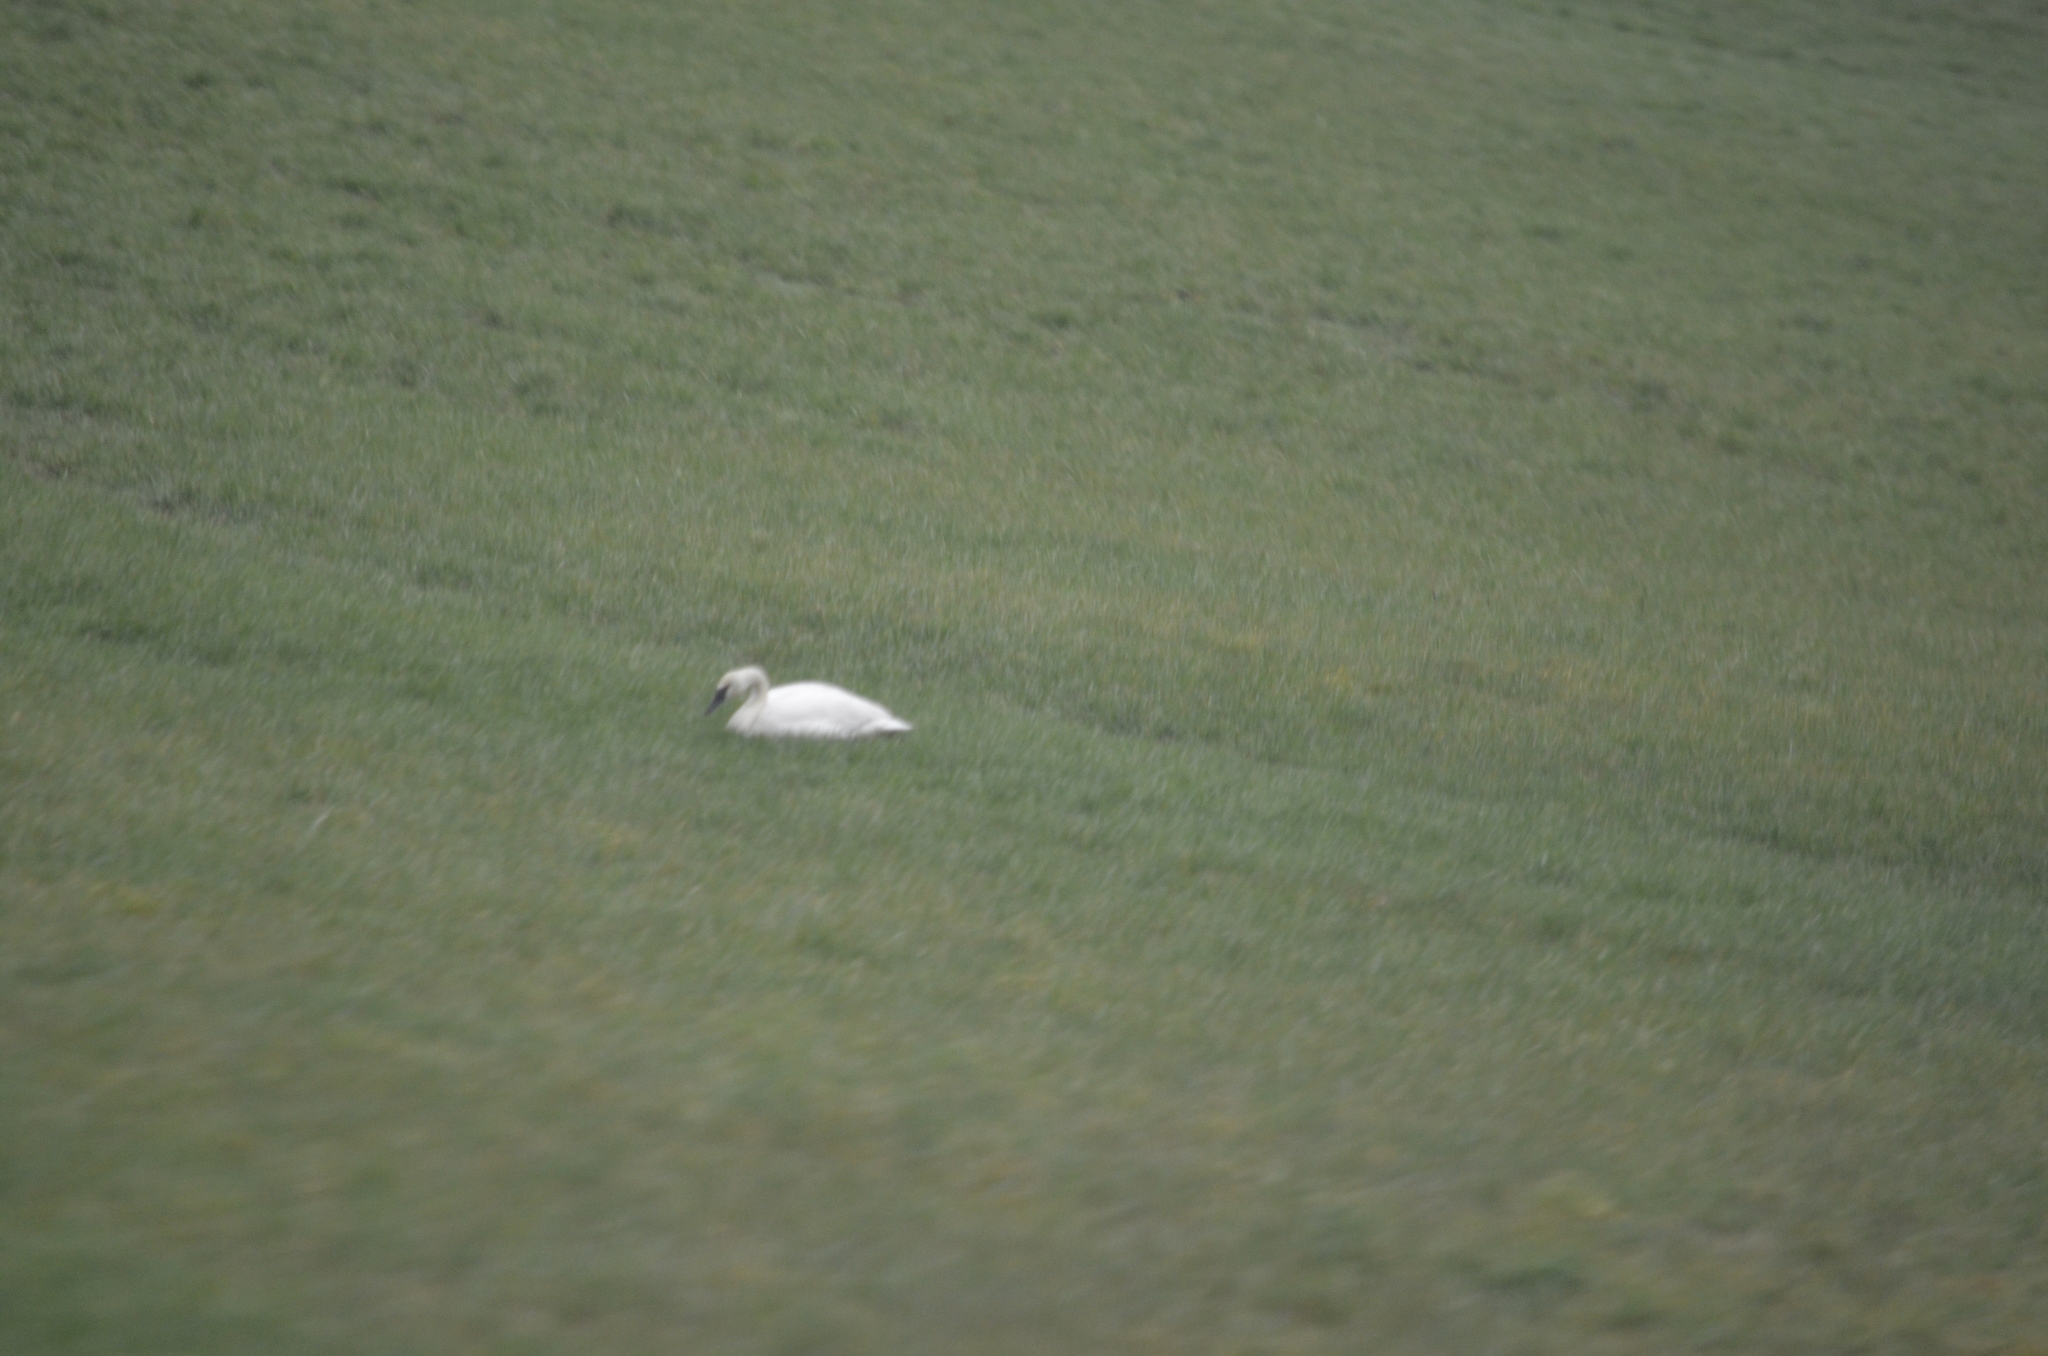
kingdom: Animalia
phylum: Chordata
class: Aves
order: Anseriformes
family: Anatidae
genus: Cygnus
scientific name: Cygnus buccinator
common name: Trumpeter swan
